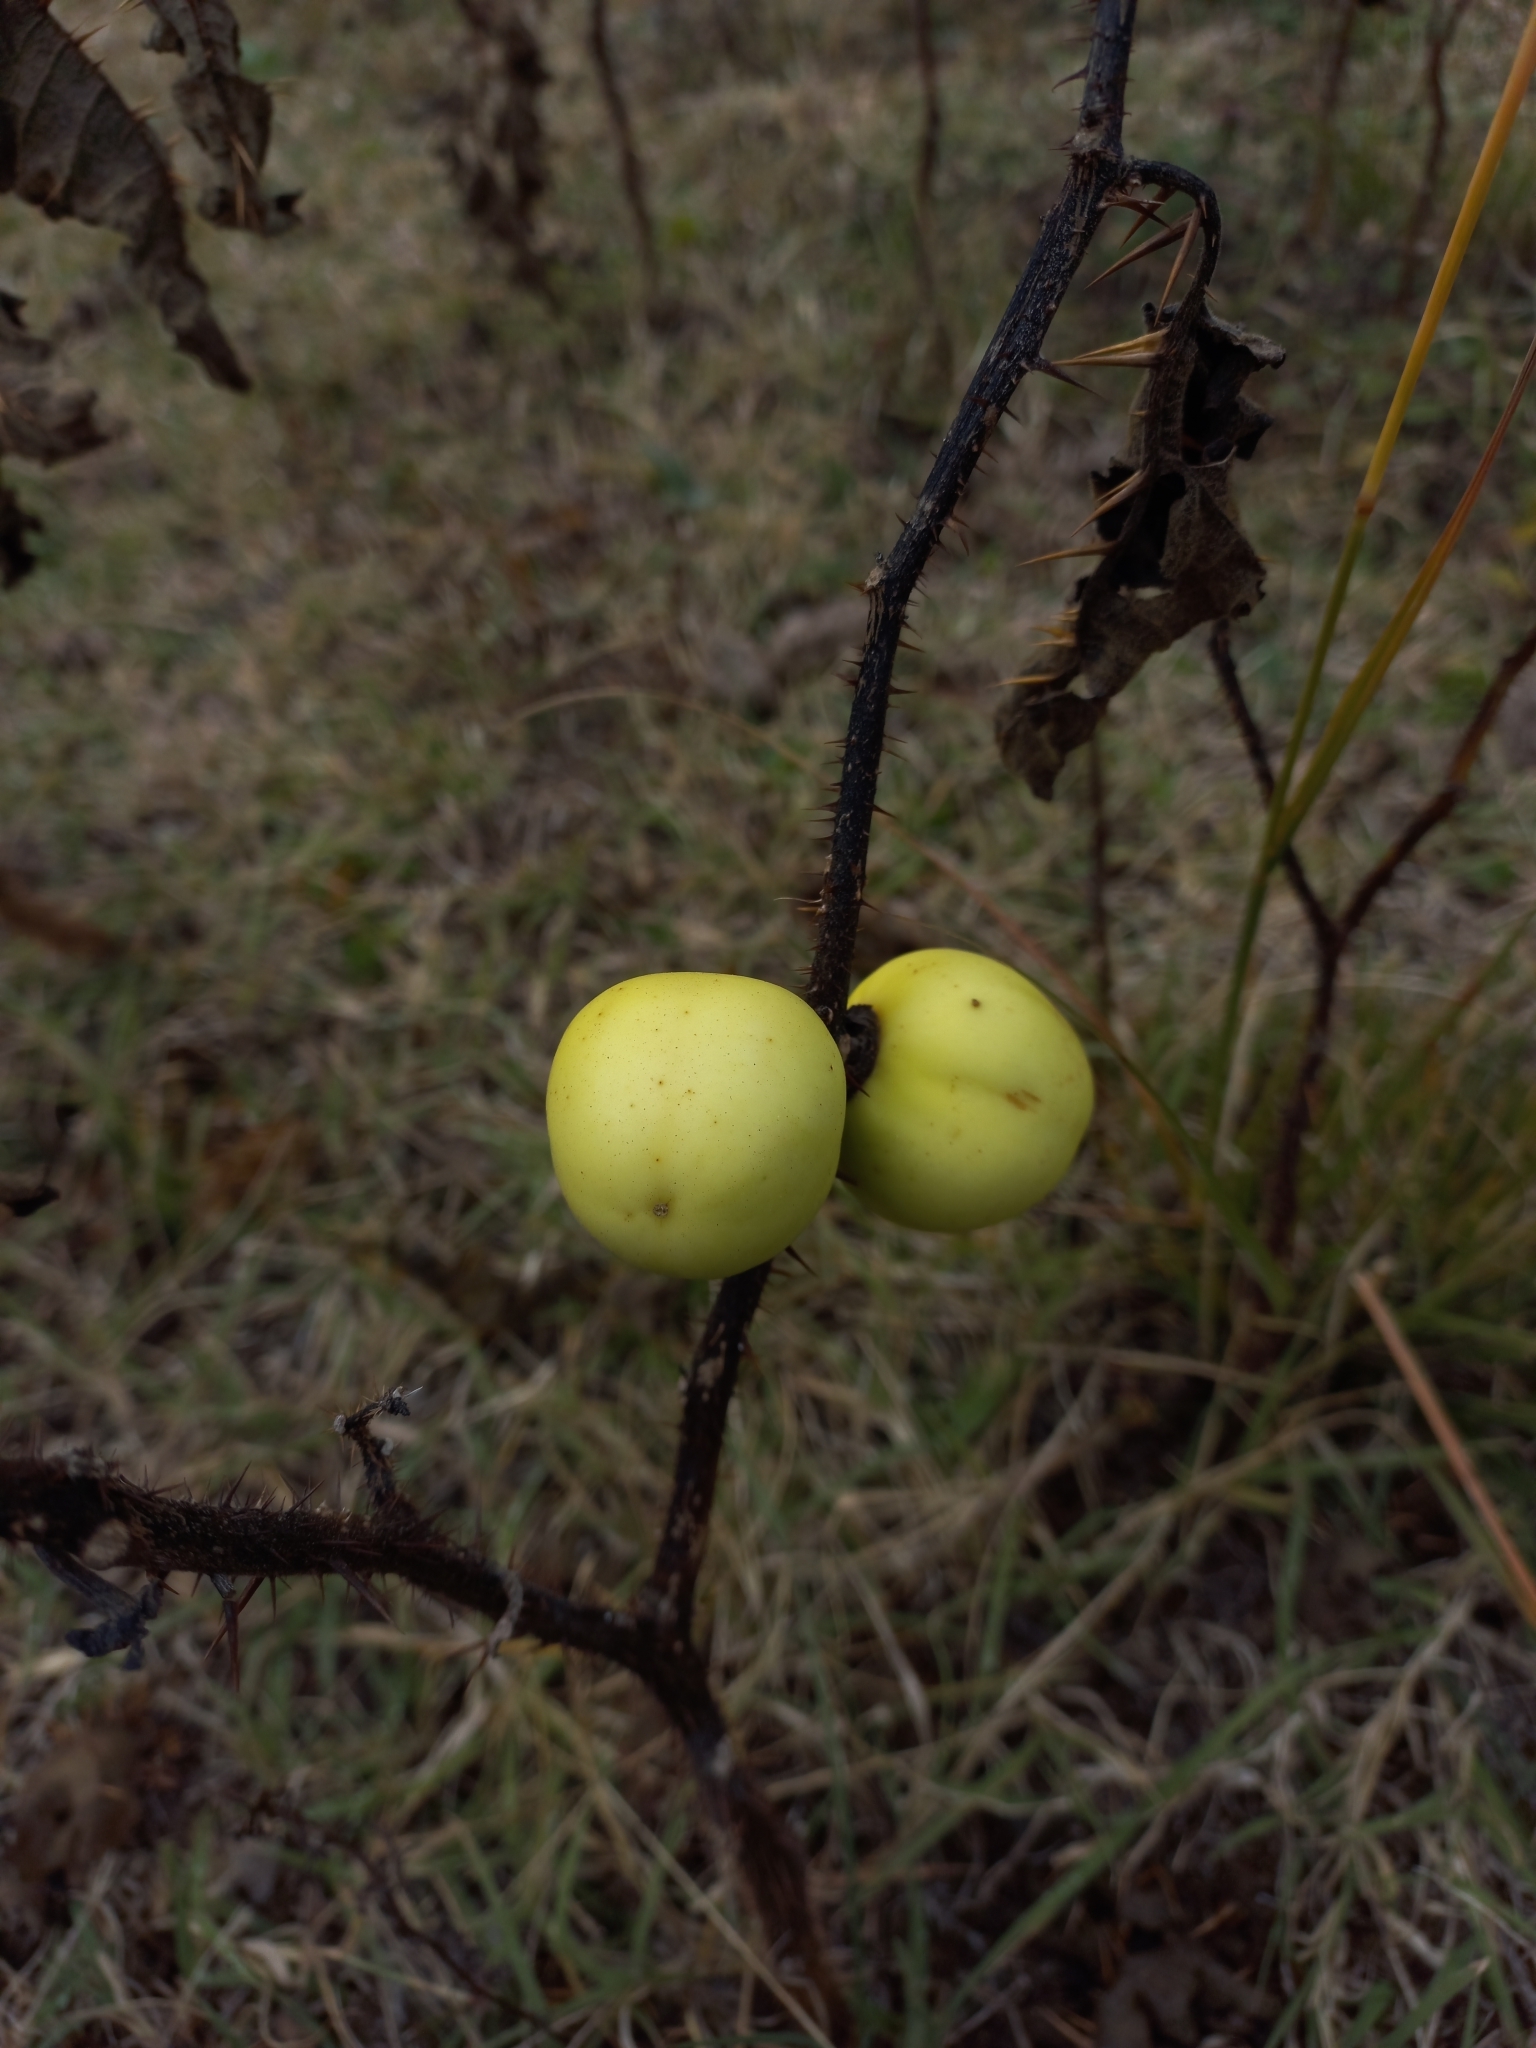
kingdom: Plantae
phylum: Tracheophyta
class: Magnoliopsida
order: Solanales
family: Solanaceae
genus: Solanum
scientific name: Solanum palinacanthum
